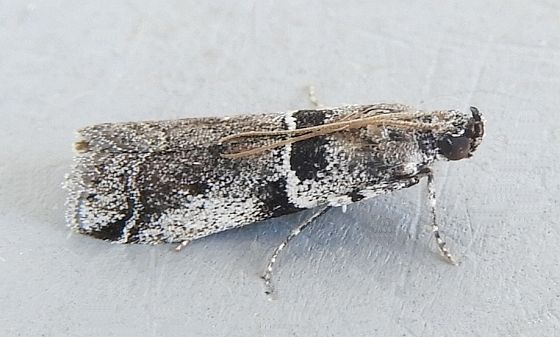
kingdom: Animalia
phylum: Arthropoda
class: Insecta
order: Lepidoptera
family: Pyralidae
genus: Quasisalebria
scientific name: Quasisalebria admixta
